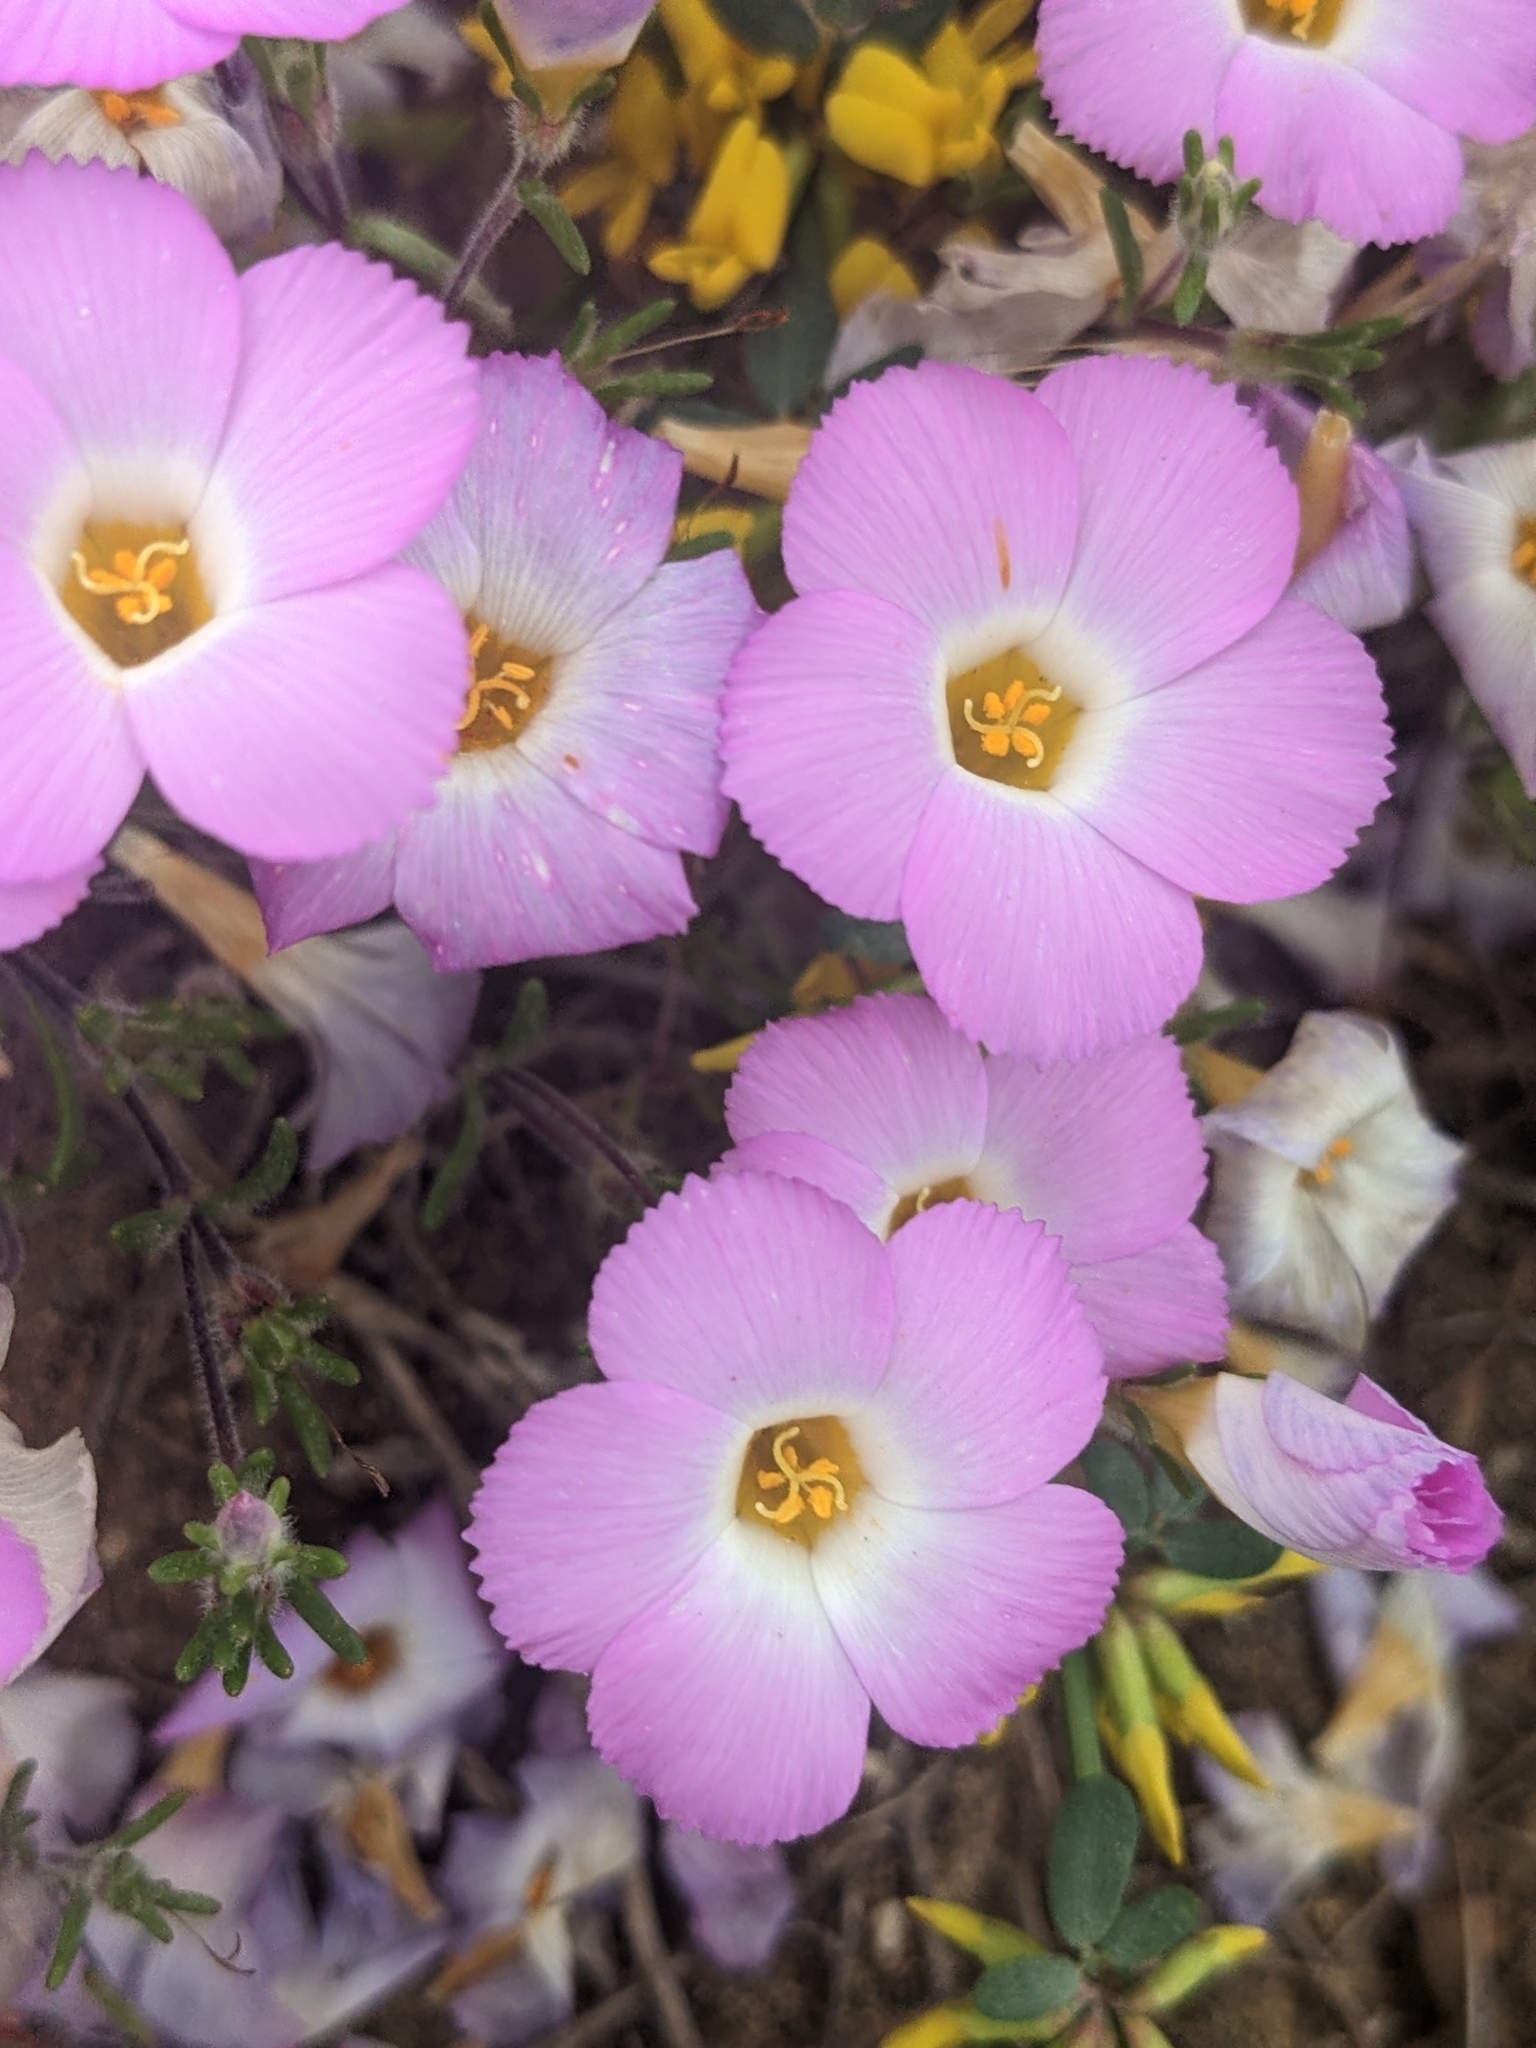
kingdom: Plantae
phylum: Tracheophyta
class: Magnoliopsida
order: Ericales
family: Polemoniaceae
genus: Linanthus
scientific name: Linanthus dianthiflorus
